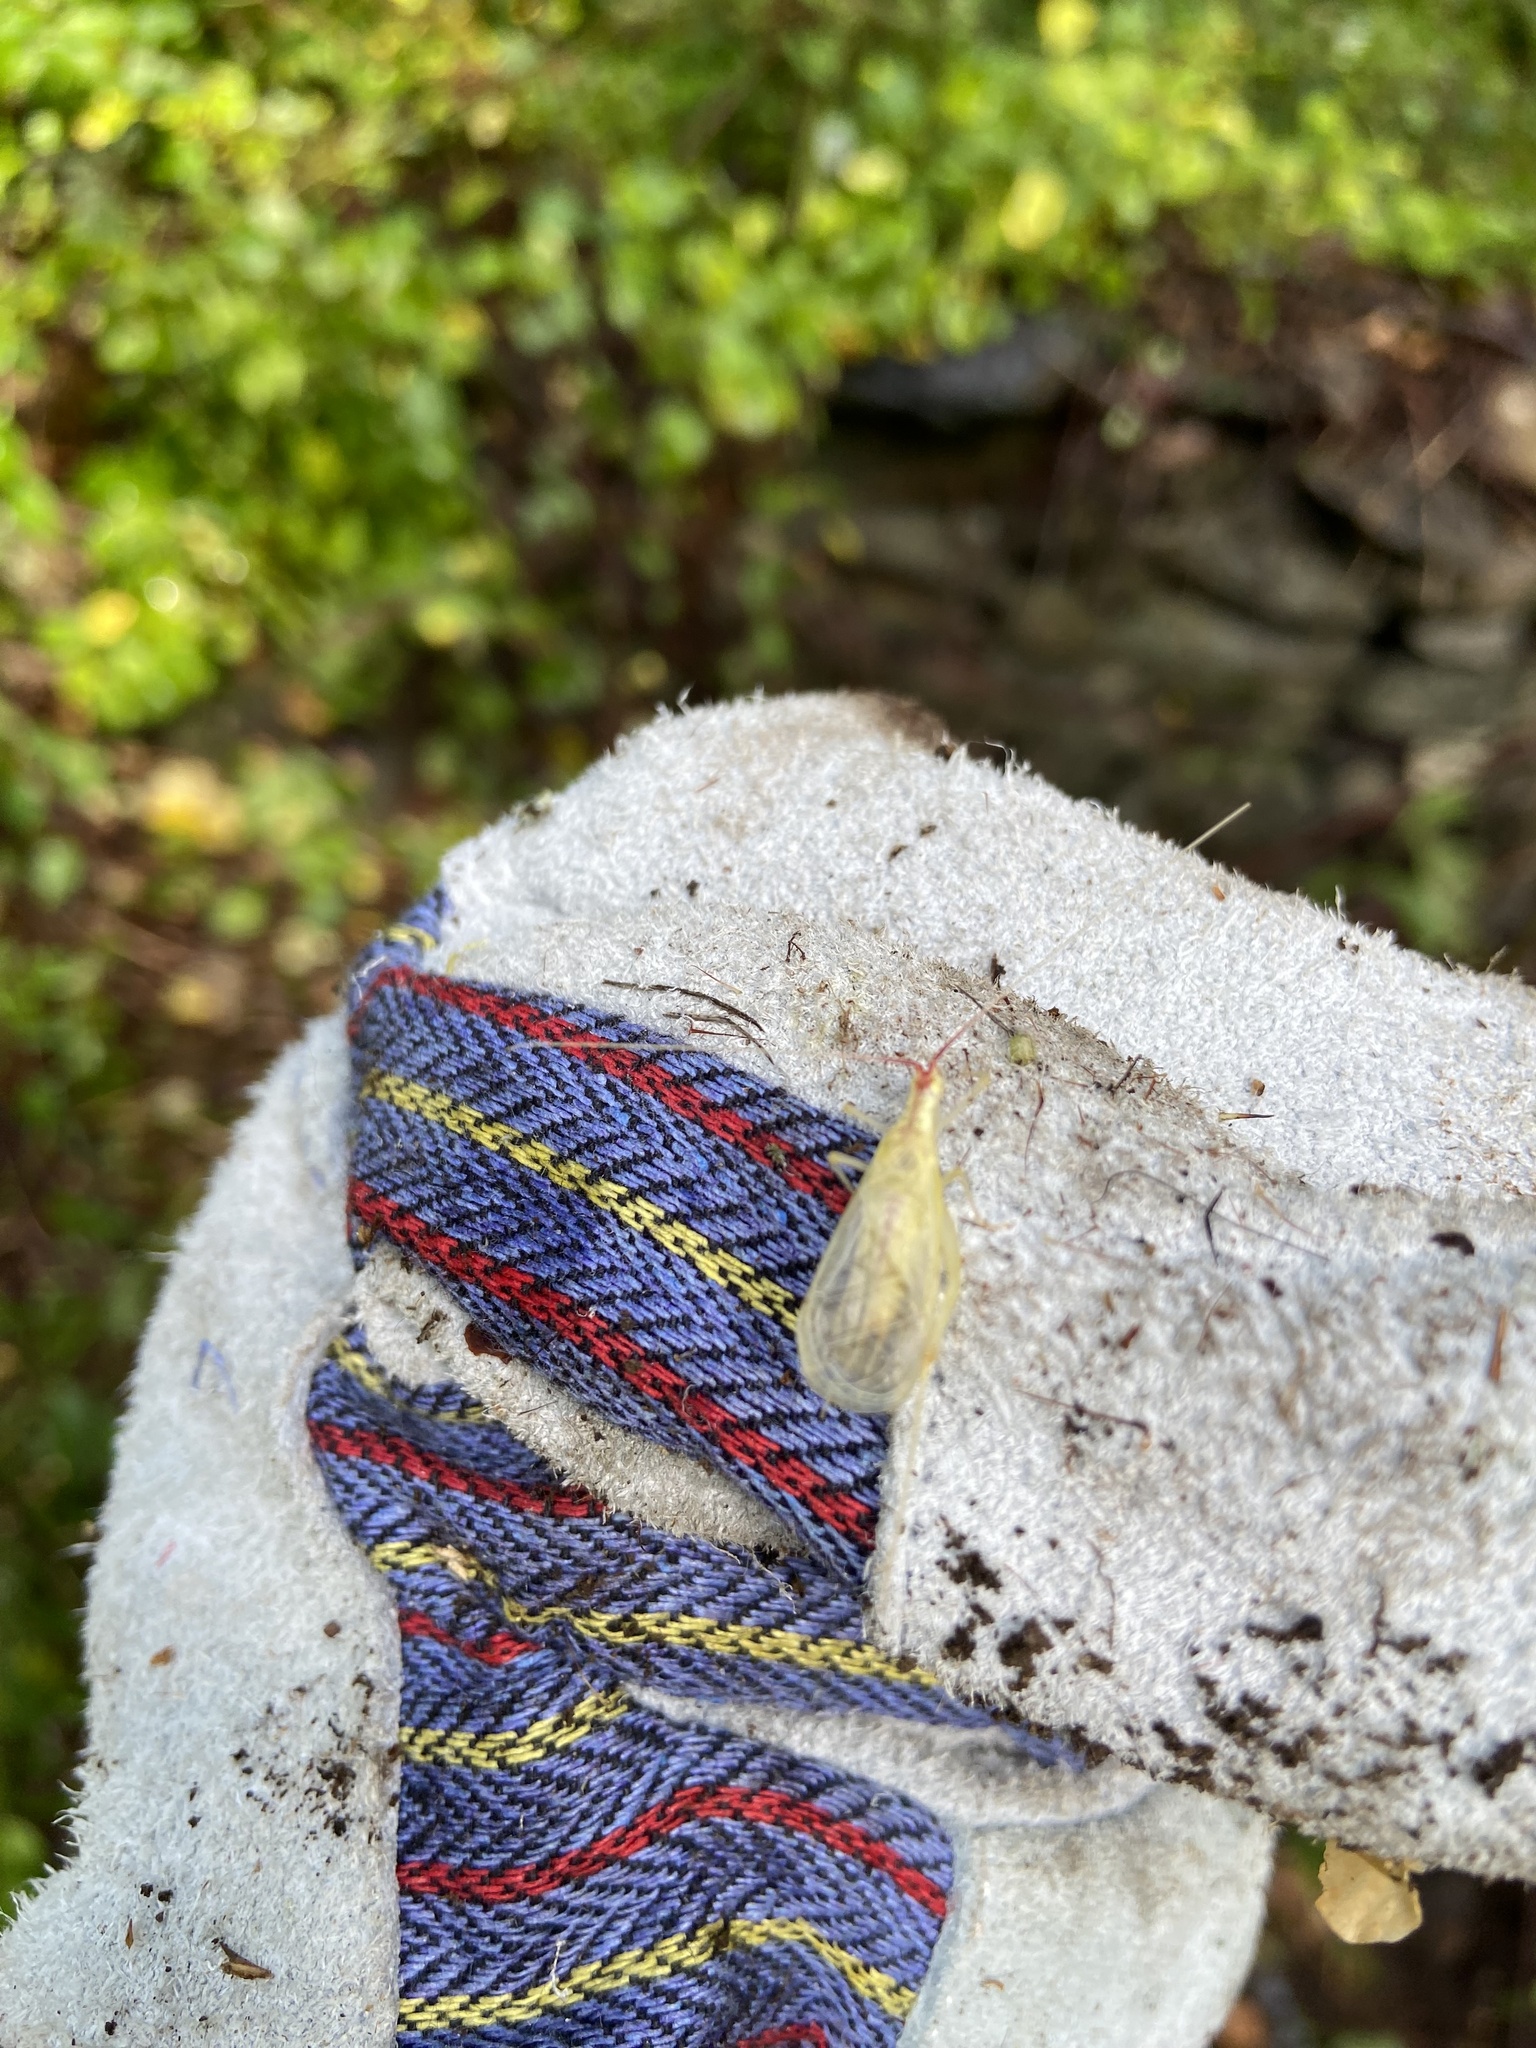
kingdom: Animalia
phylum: Arthropoda
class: Insecta
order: Orthoptera
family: Gryllidae
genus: Oecanthus
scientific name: Oecanthus latipennis
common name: Broad-winged tree cricket
